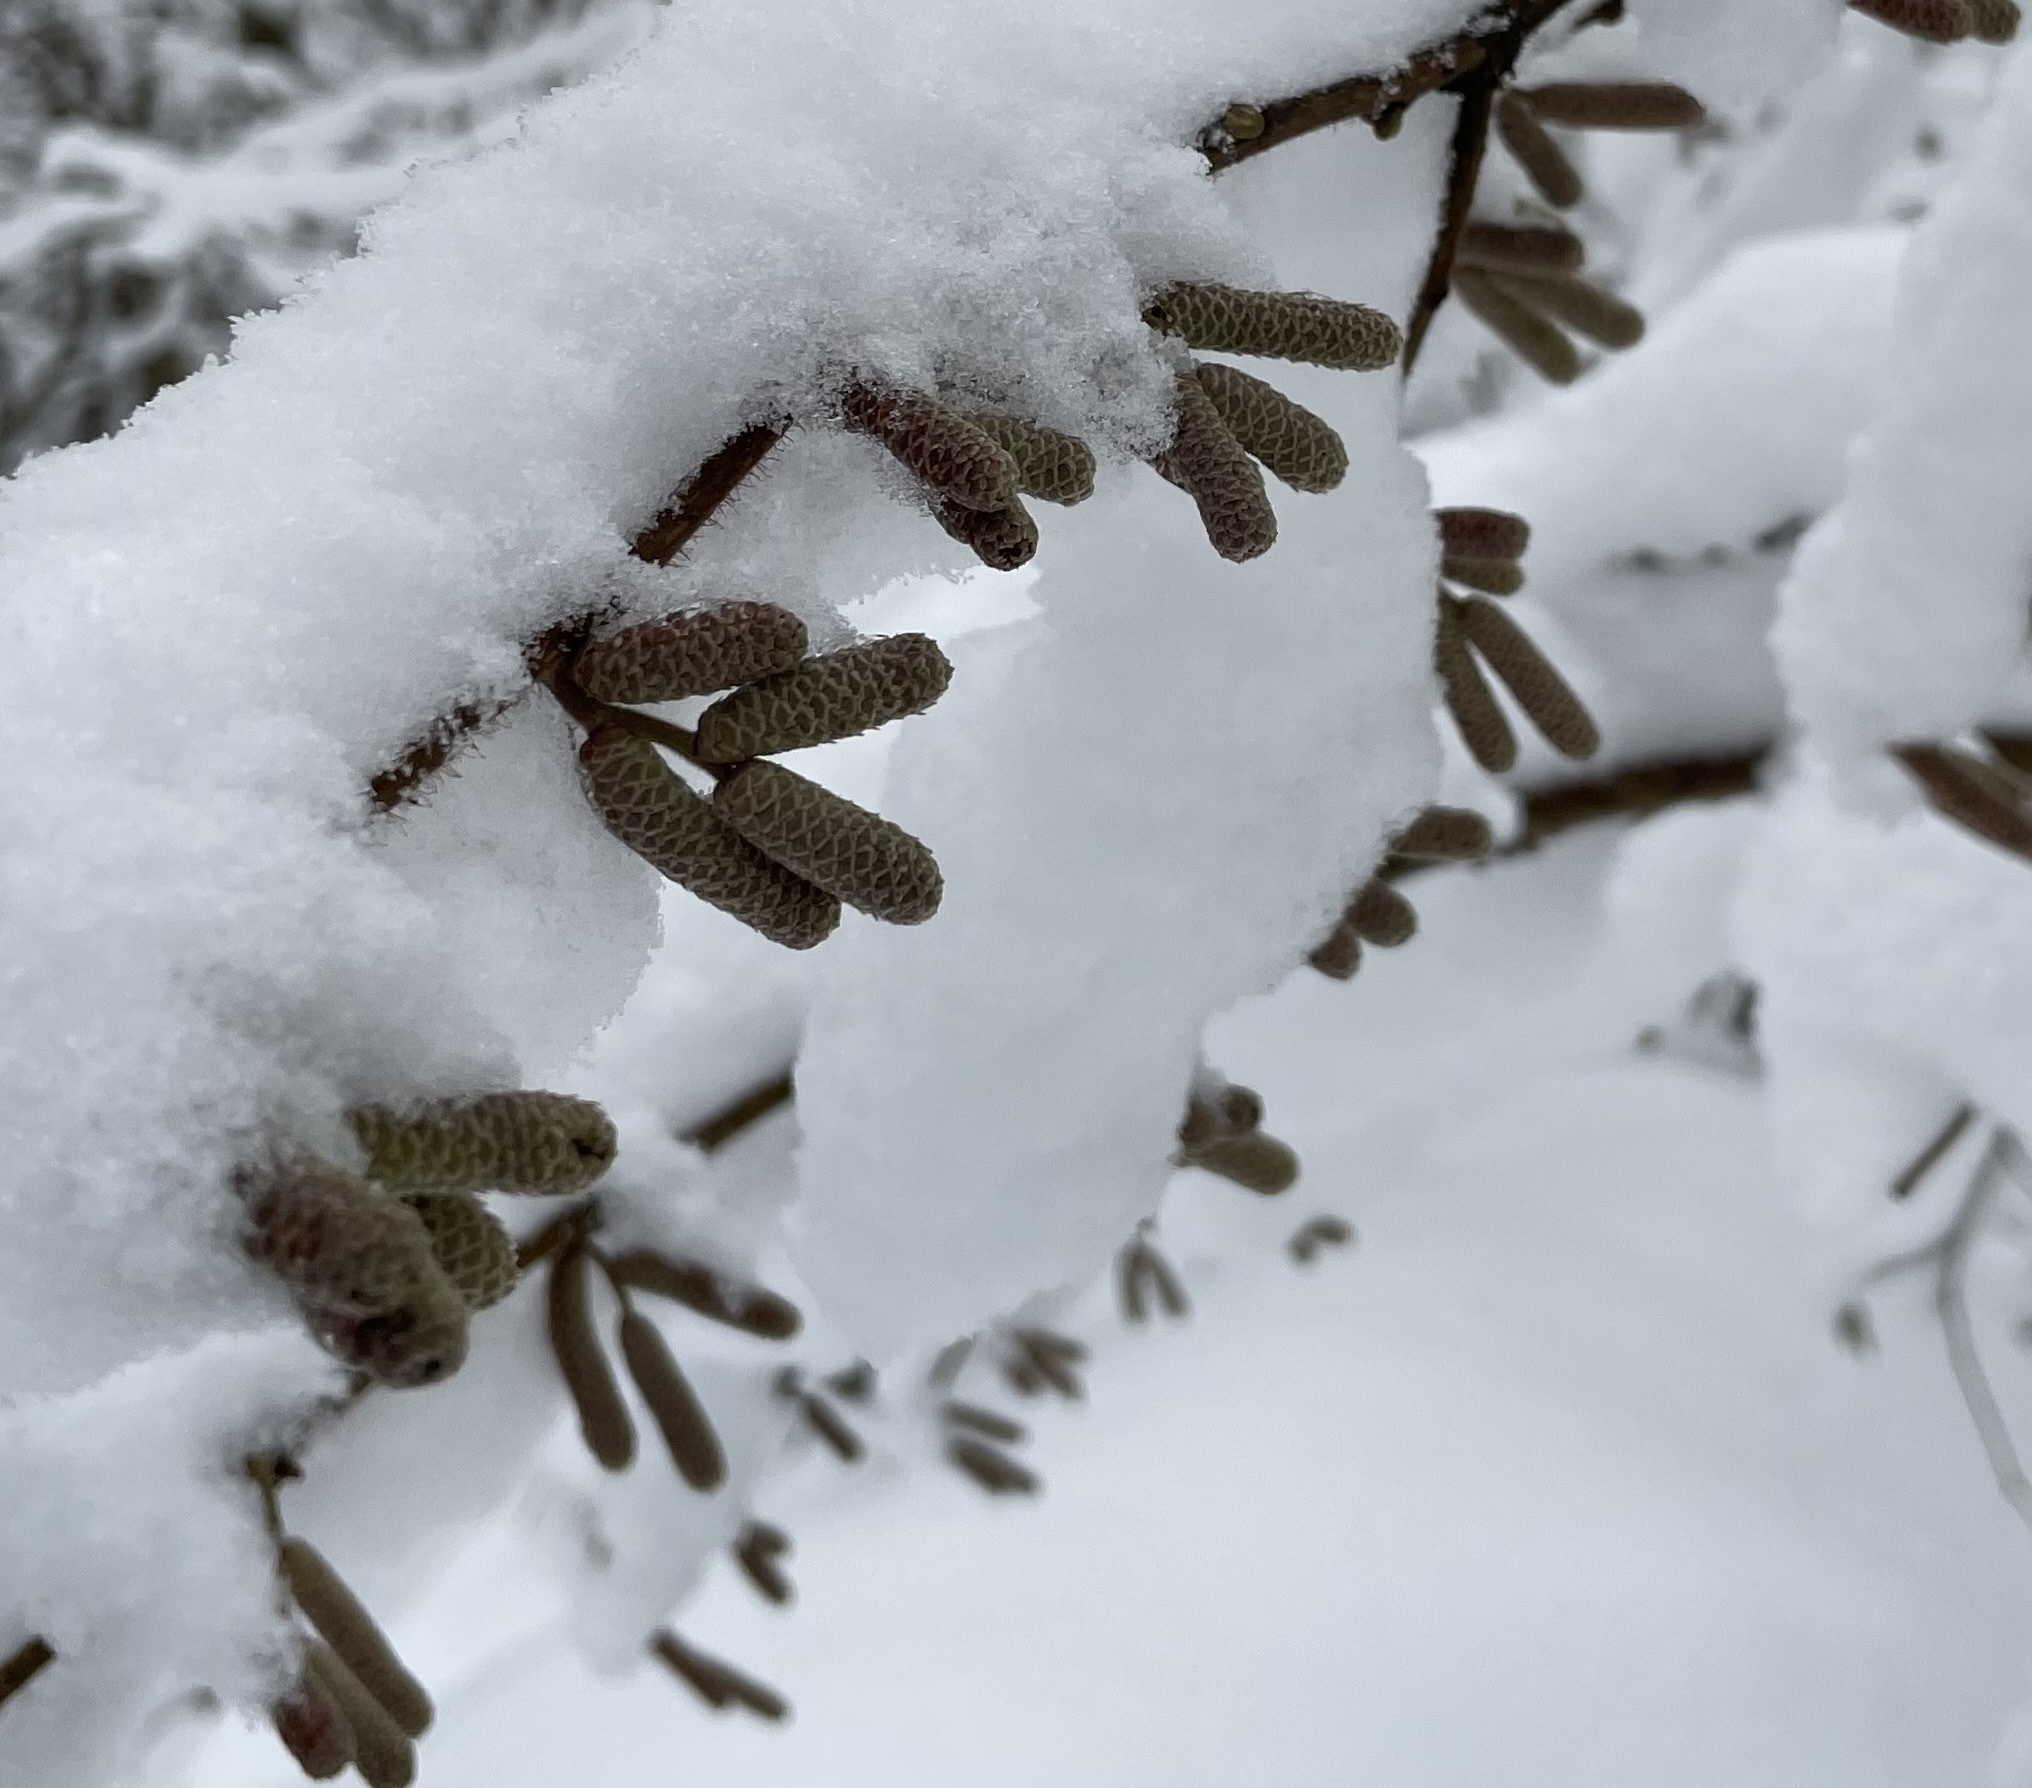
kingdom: Plantae
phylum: Tracheophyta
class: Magnoliopsida
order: Fagales
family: Betulaceae
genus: Corylus
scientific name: Corylus avellana
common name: European hazel
